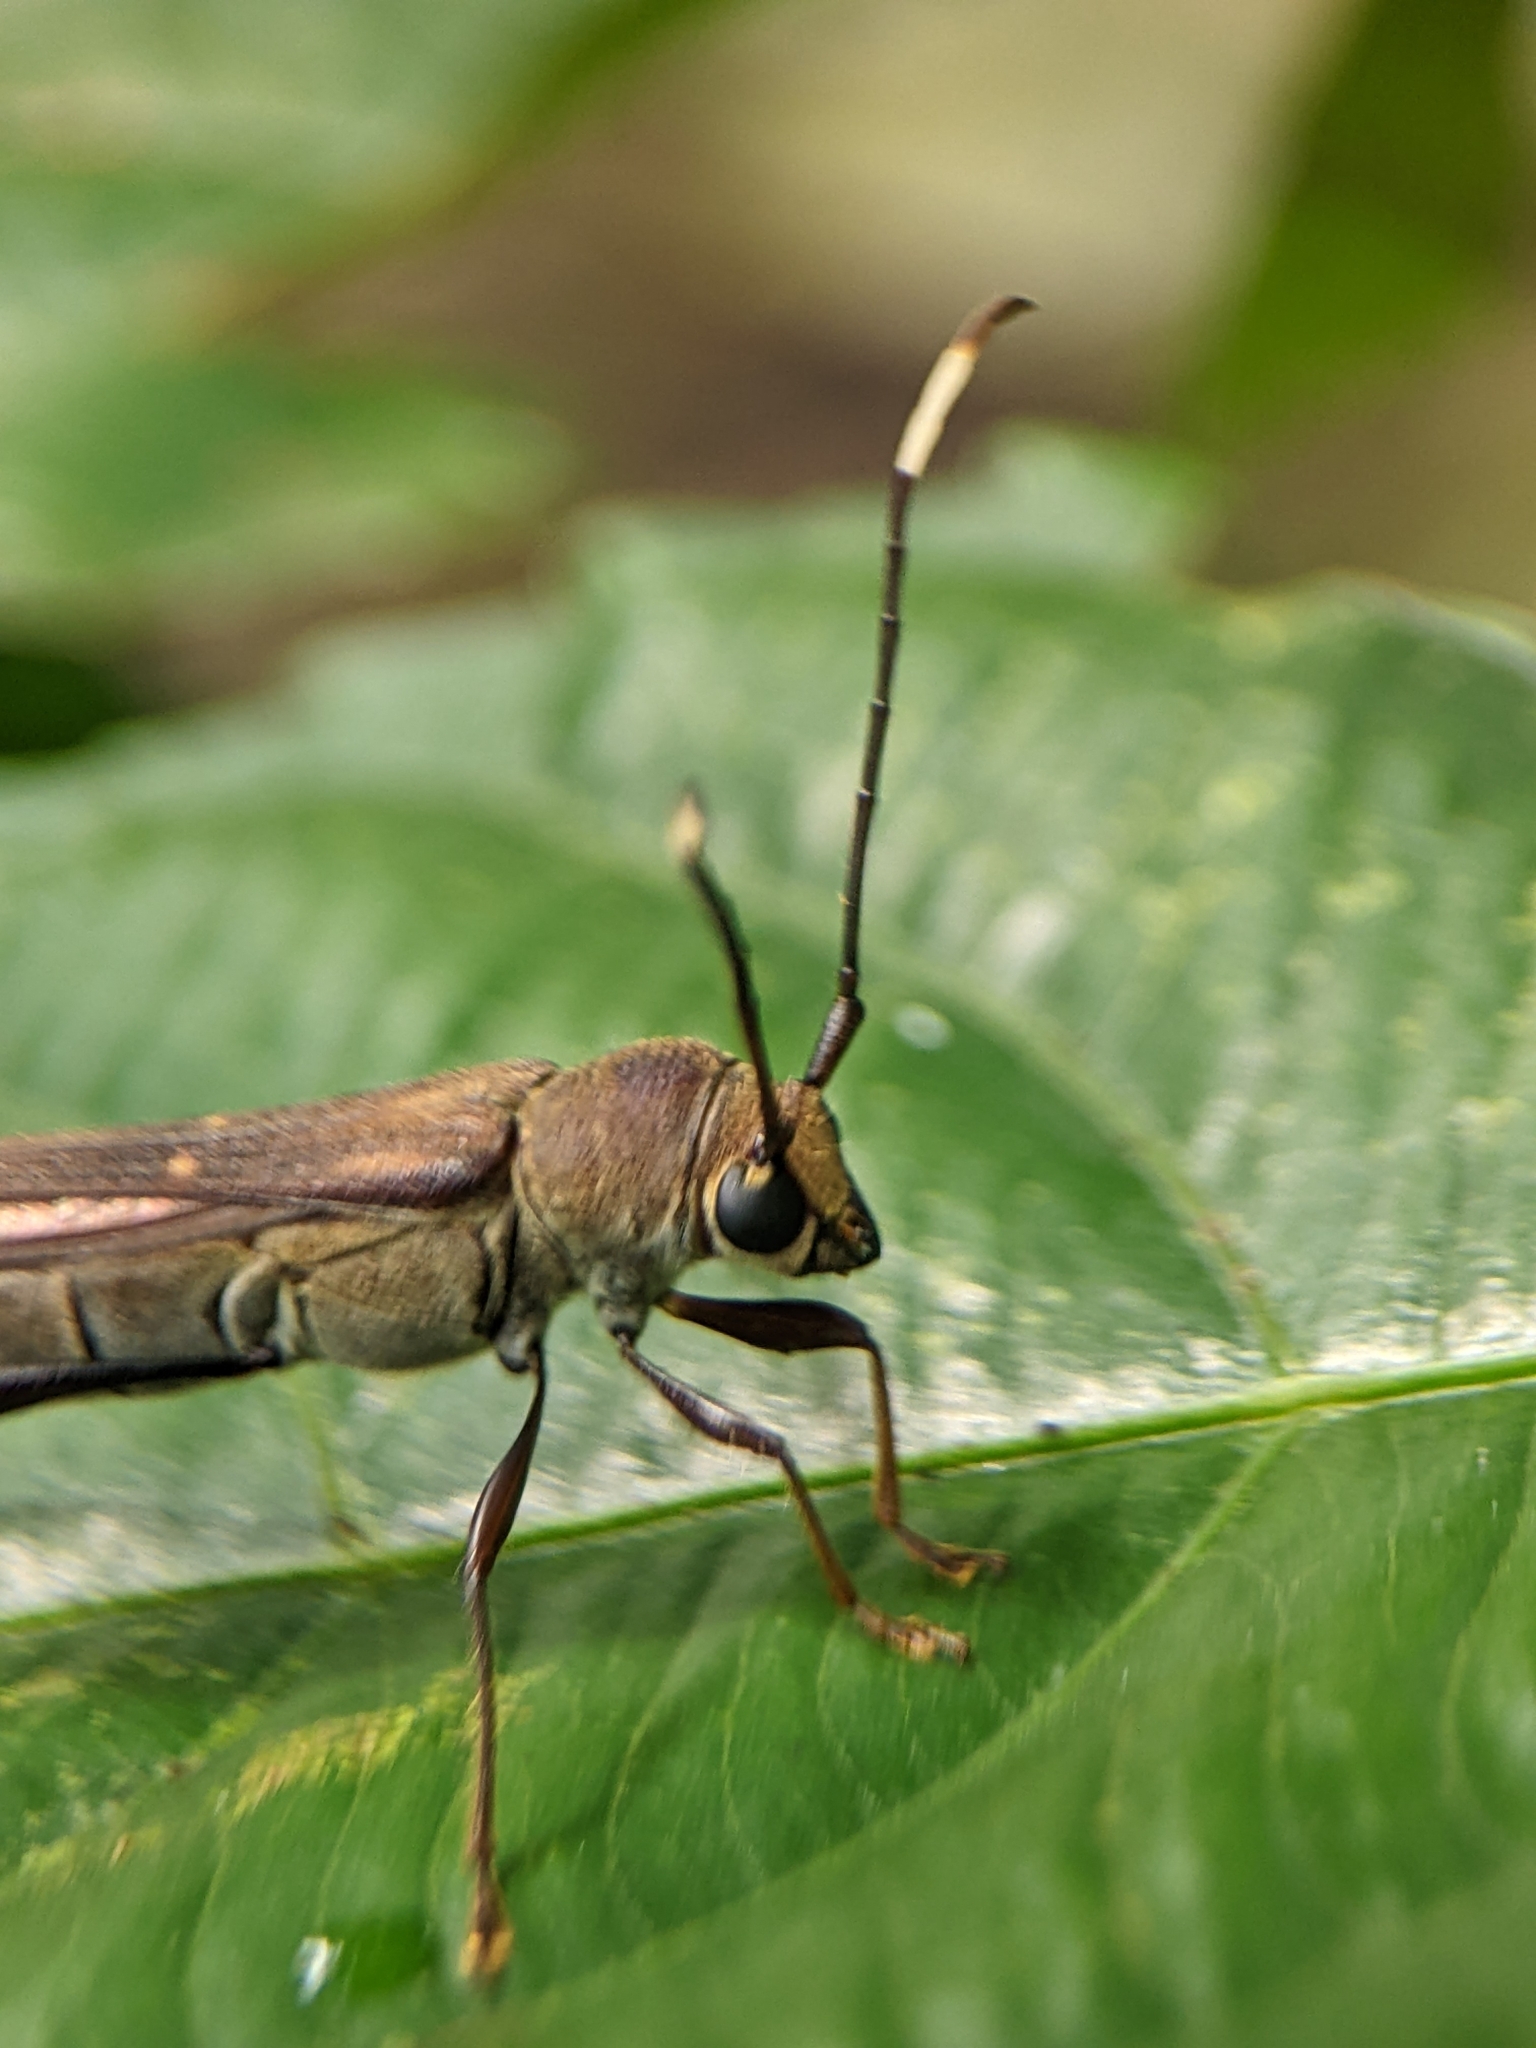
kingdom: Animalia
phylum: Arthropoda
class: Insecta
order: Coleoptera
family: Cerambycidae
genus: Thranius
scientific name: Thranius bimaculatus
